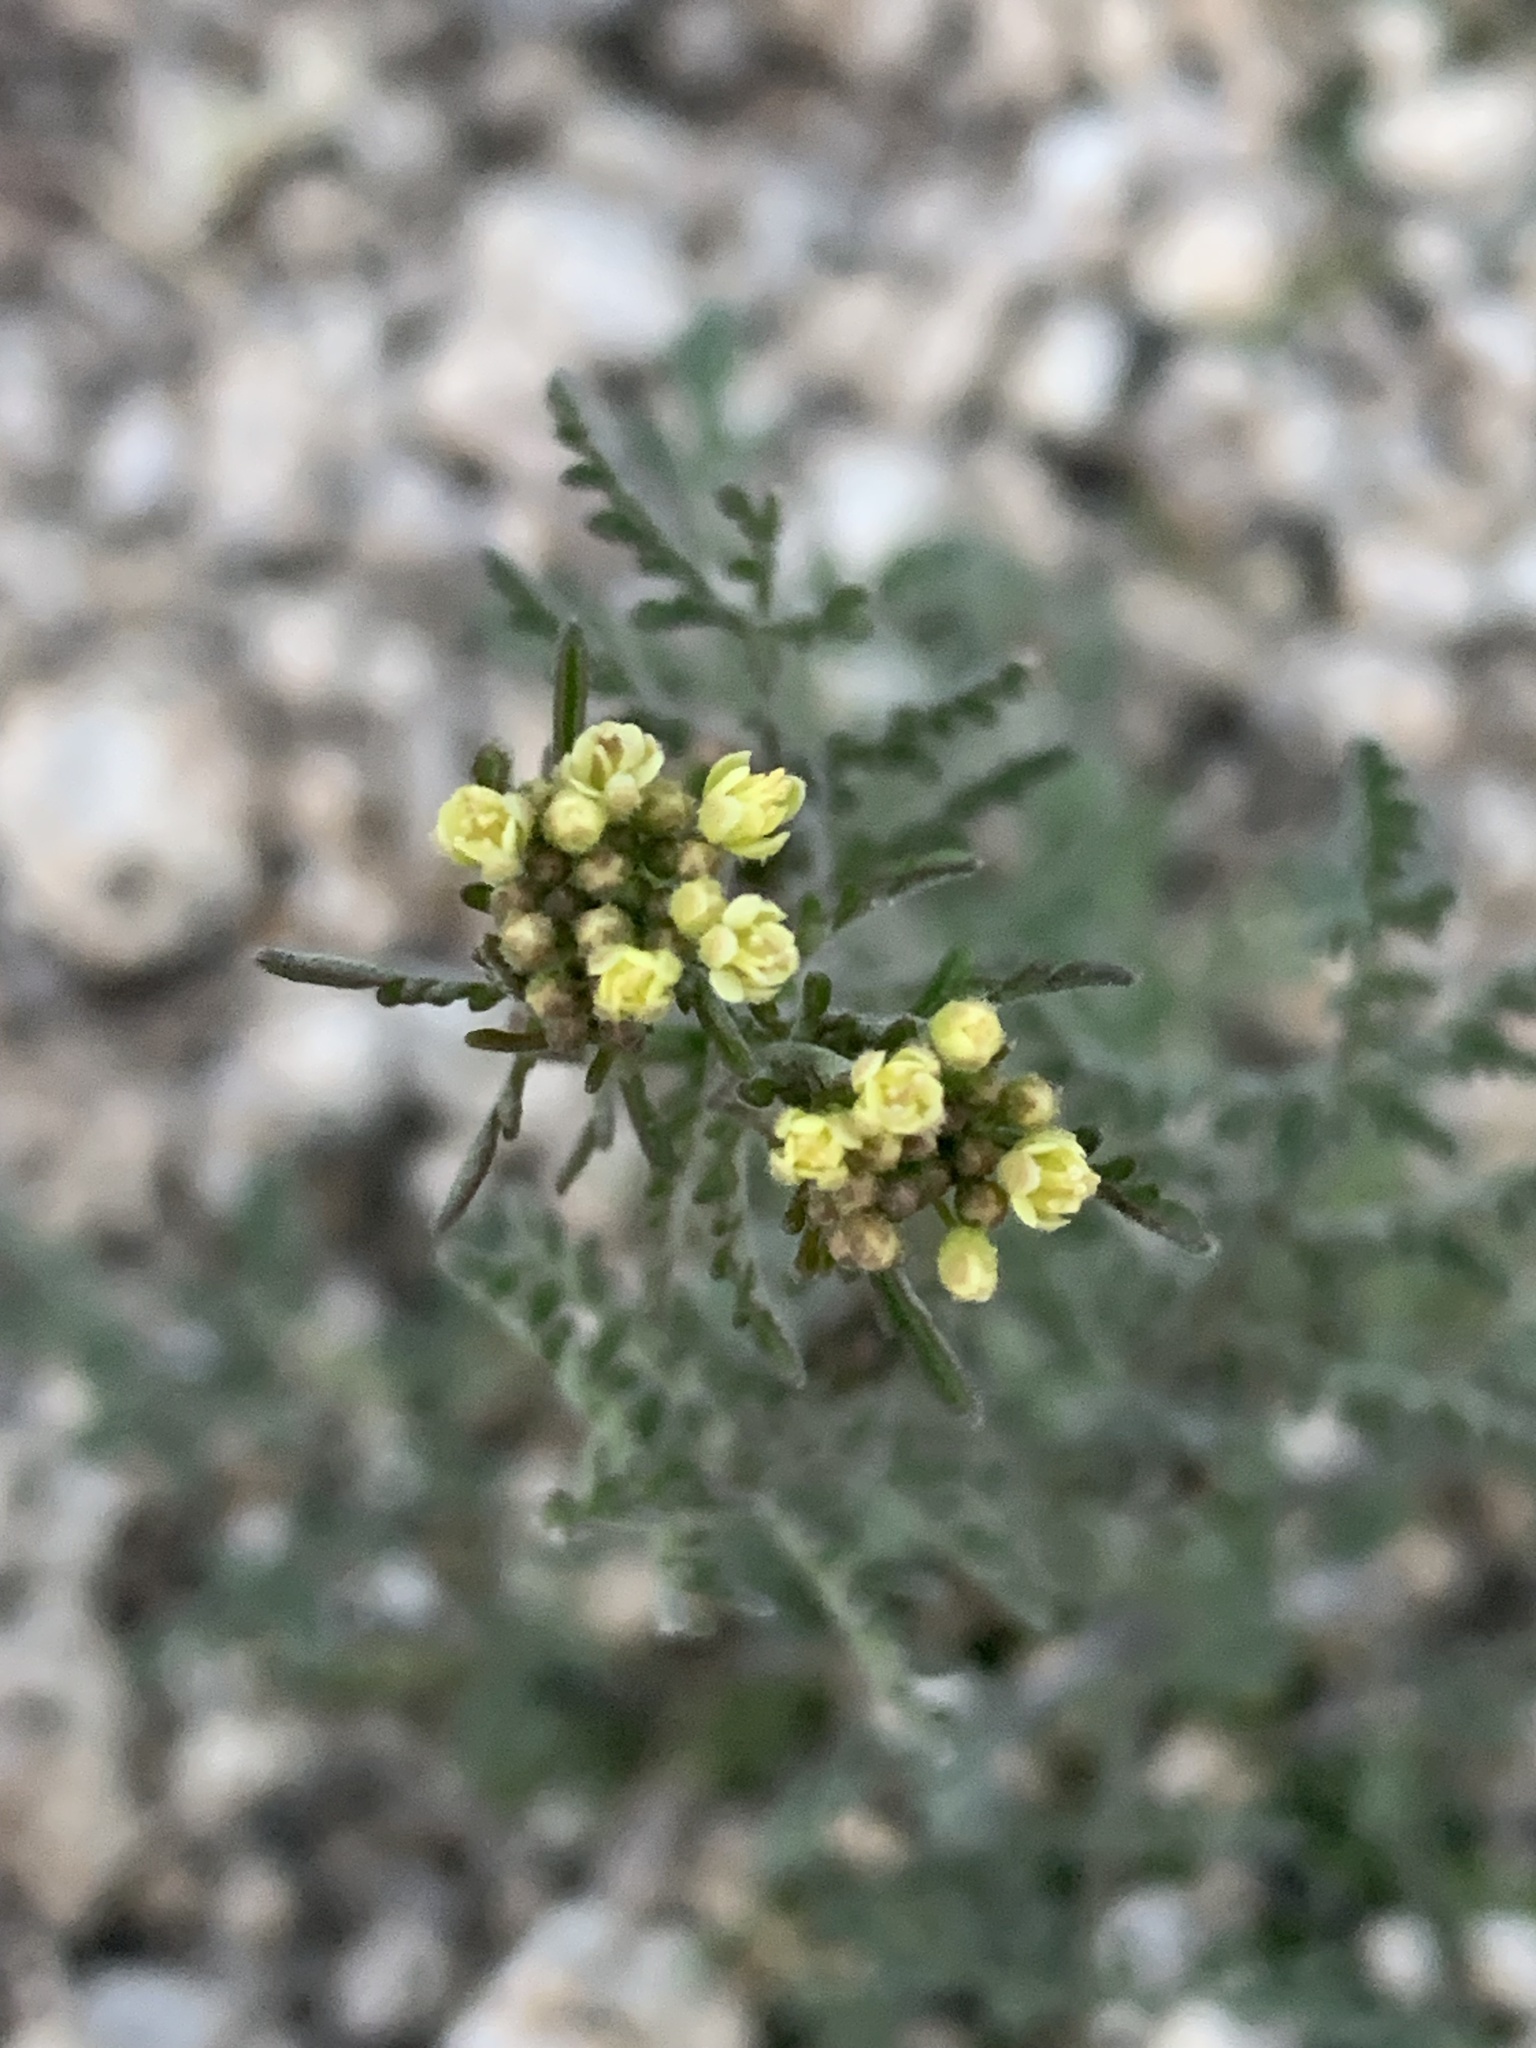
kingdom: Plantae
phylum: Tracheophyta
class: Magnoliopsida
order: Brassicales
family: Brassicaceae
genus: Descurainia
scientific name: Descurainia pinnata
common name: Western tansy mustard
